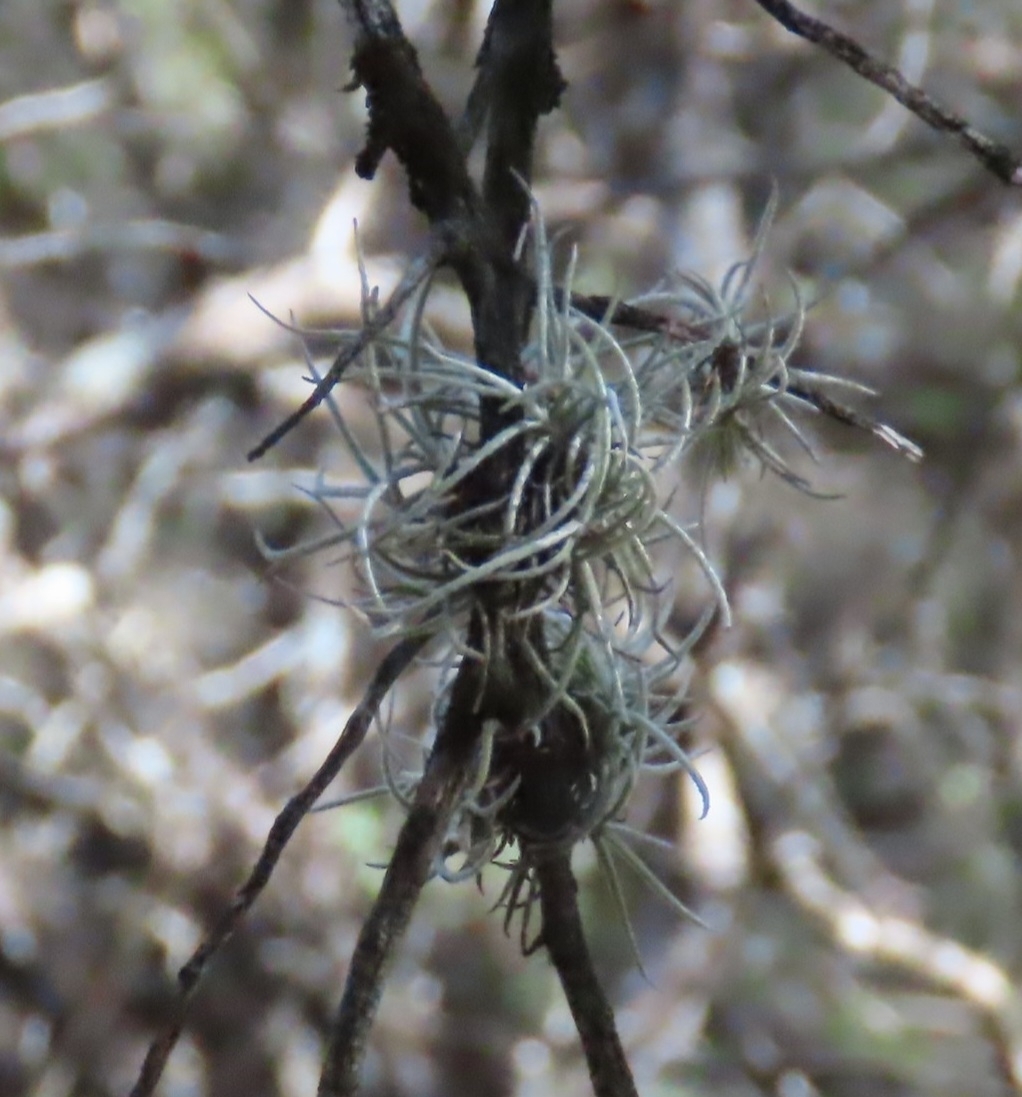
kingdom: Plantae
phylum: Tracheophyta
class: Liliopsida
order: Poales
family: Bromeliaceae
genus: Tillandsia
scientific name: Tillandsia recurvata
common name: Small ballmoss
